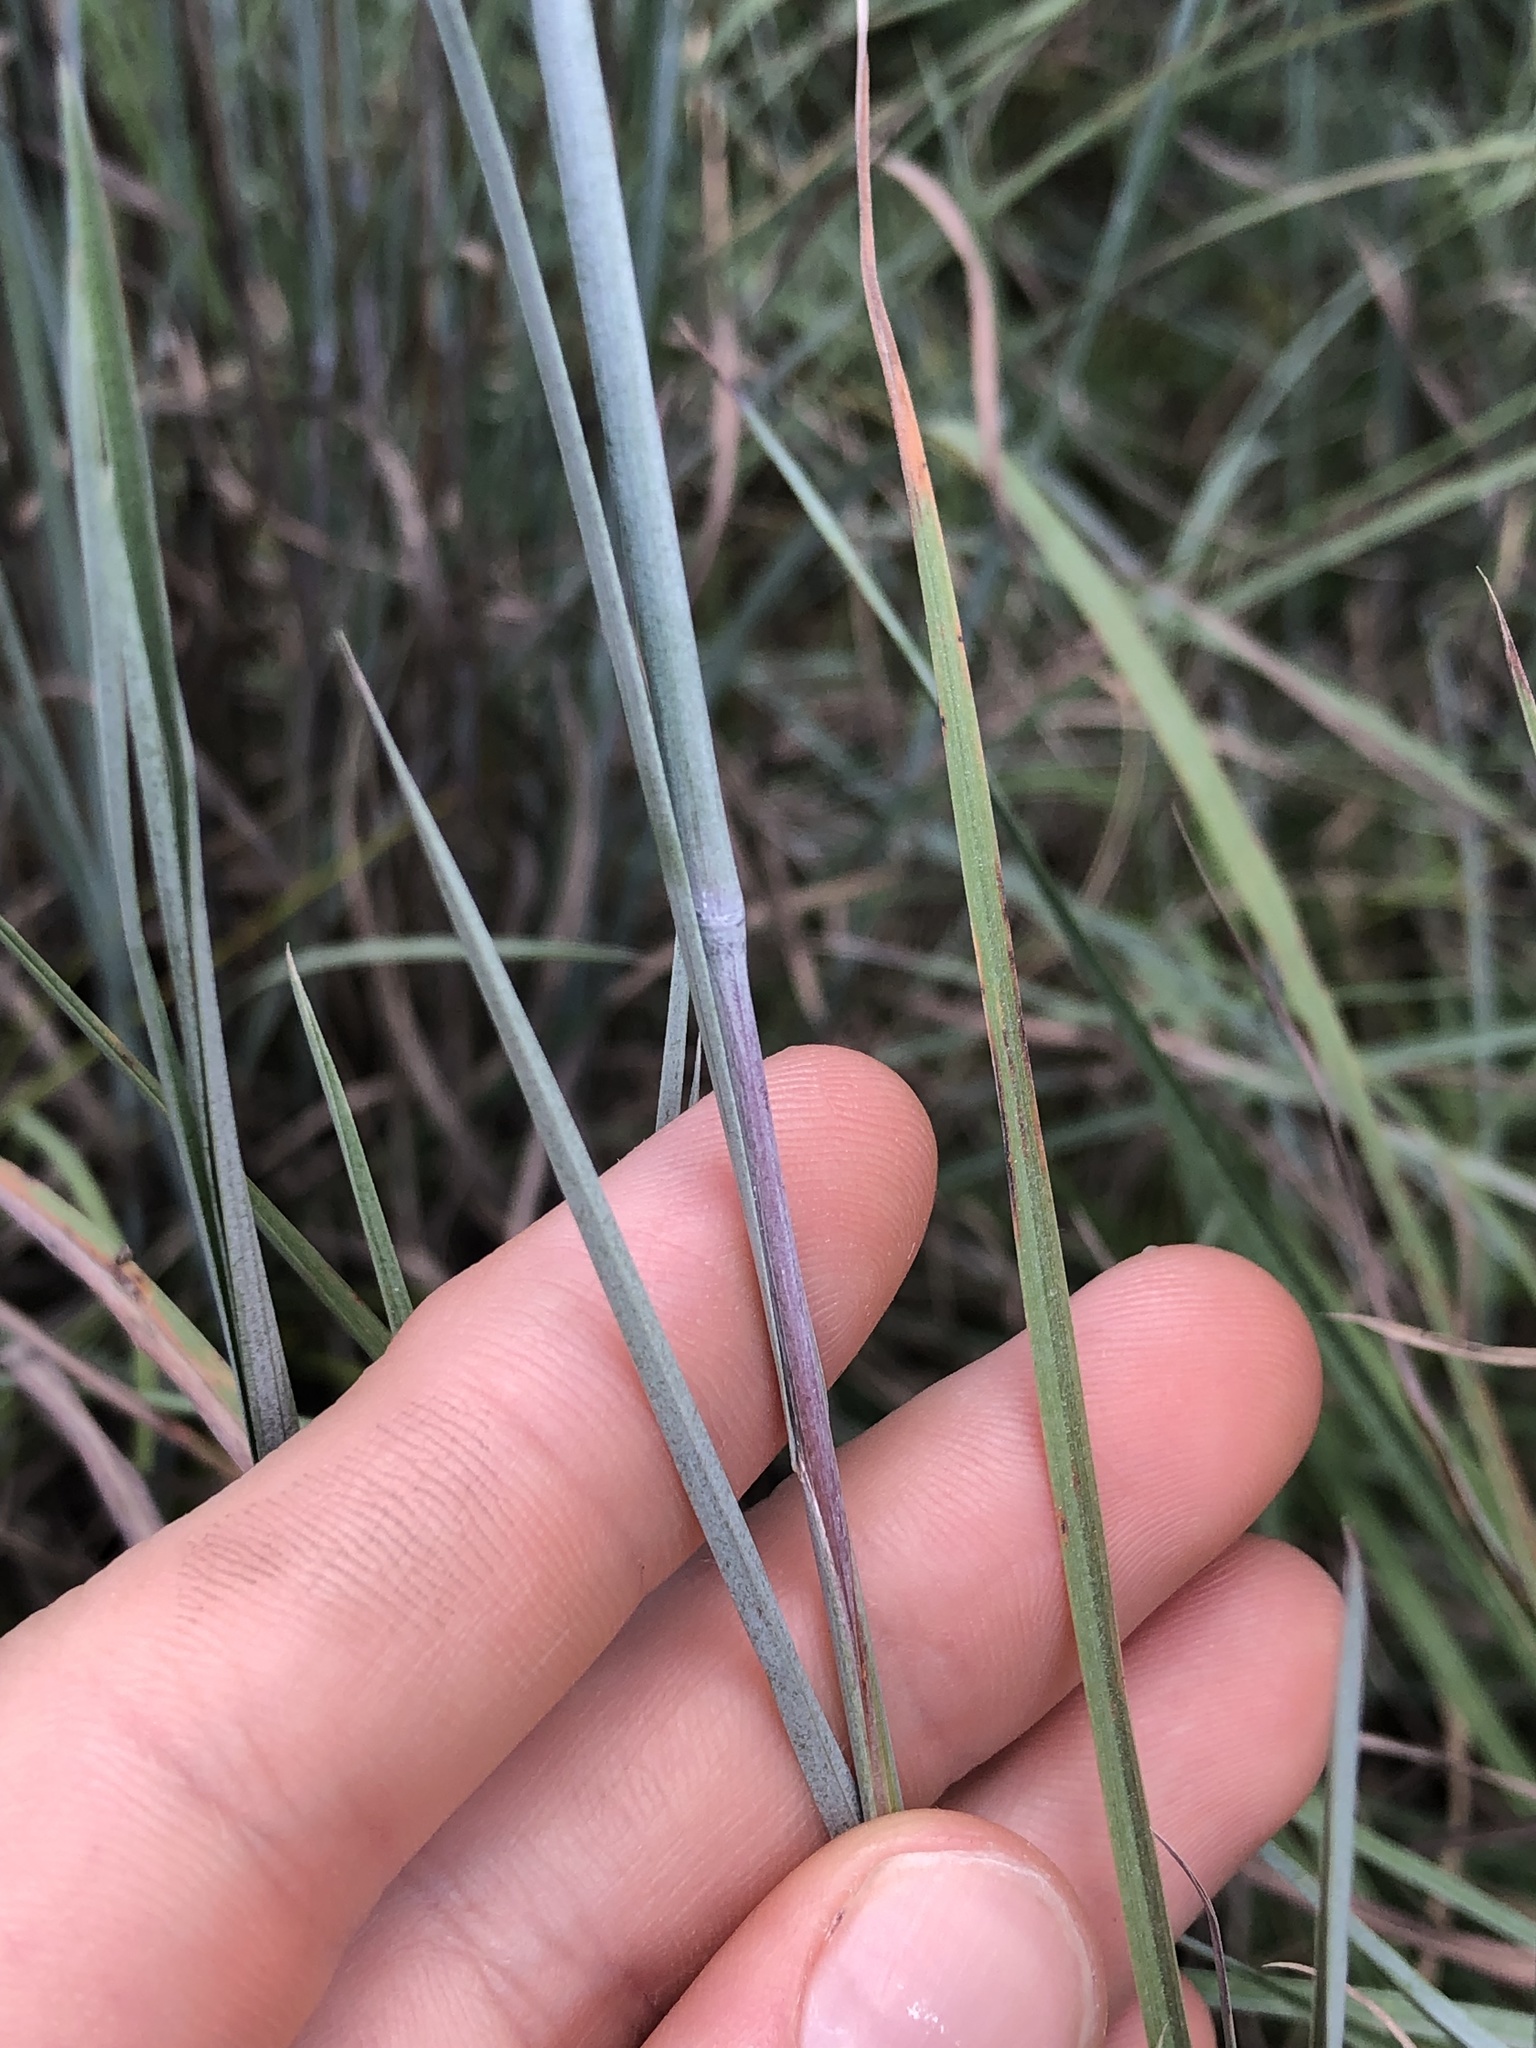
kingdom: Plantae
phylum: Tracheophyta
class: Liliopsida
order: Poales
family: Poaceae
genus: Schizachyrium
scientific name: Schizachyrium scoparium
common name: Little bluestem
